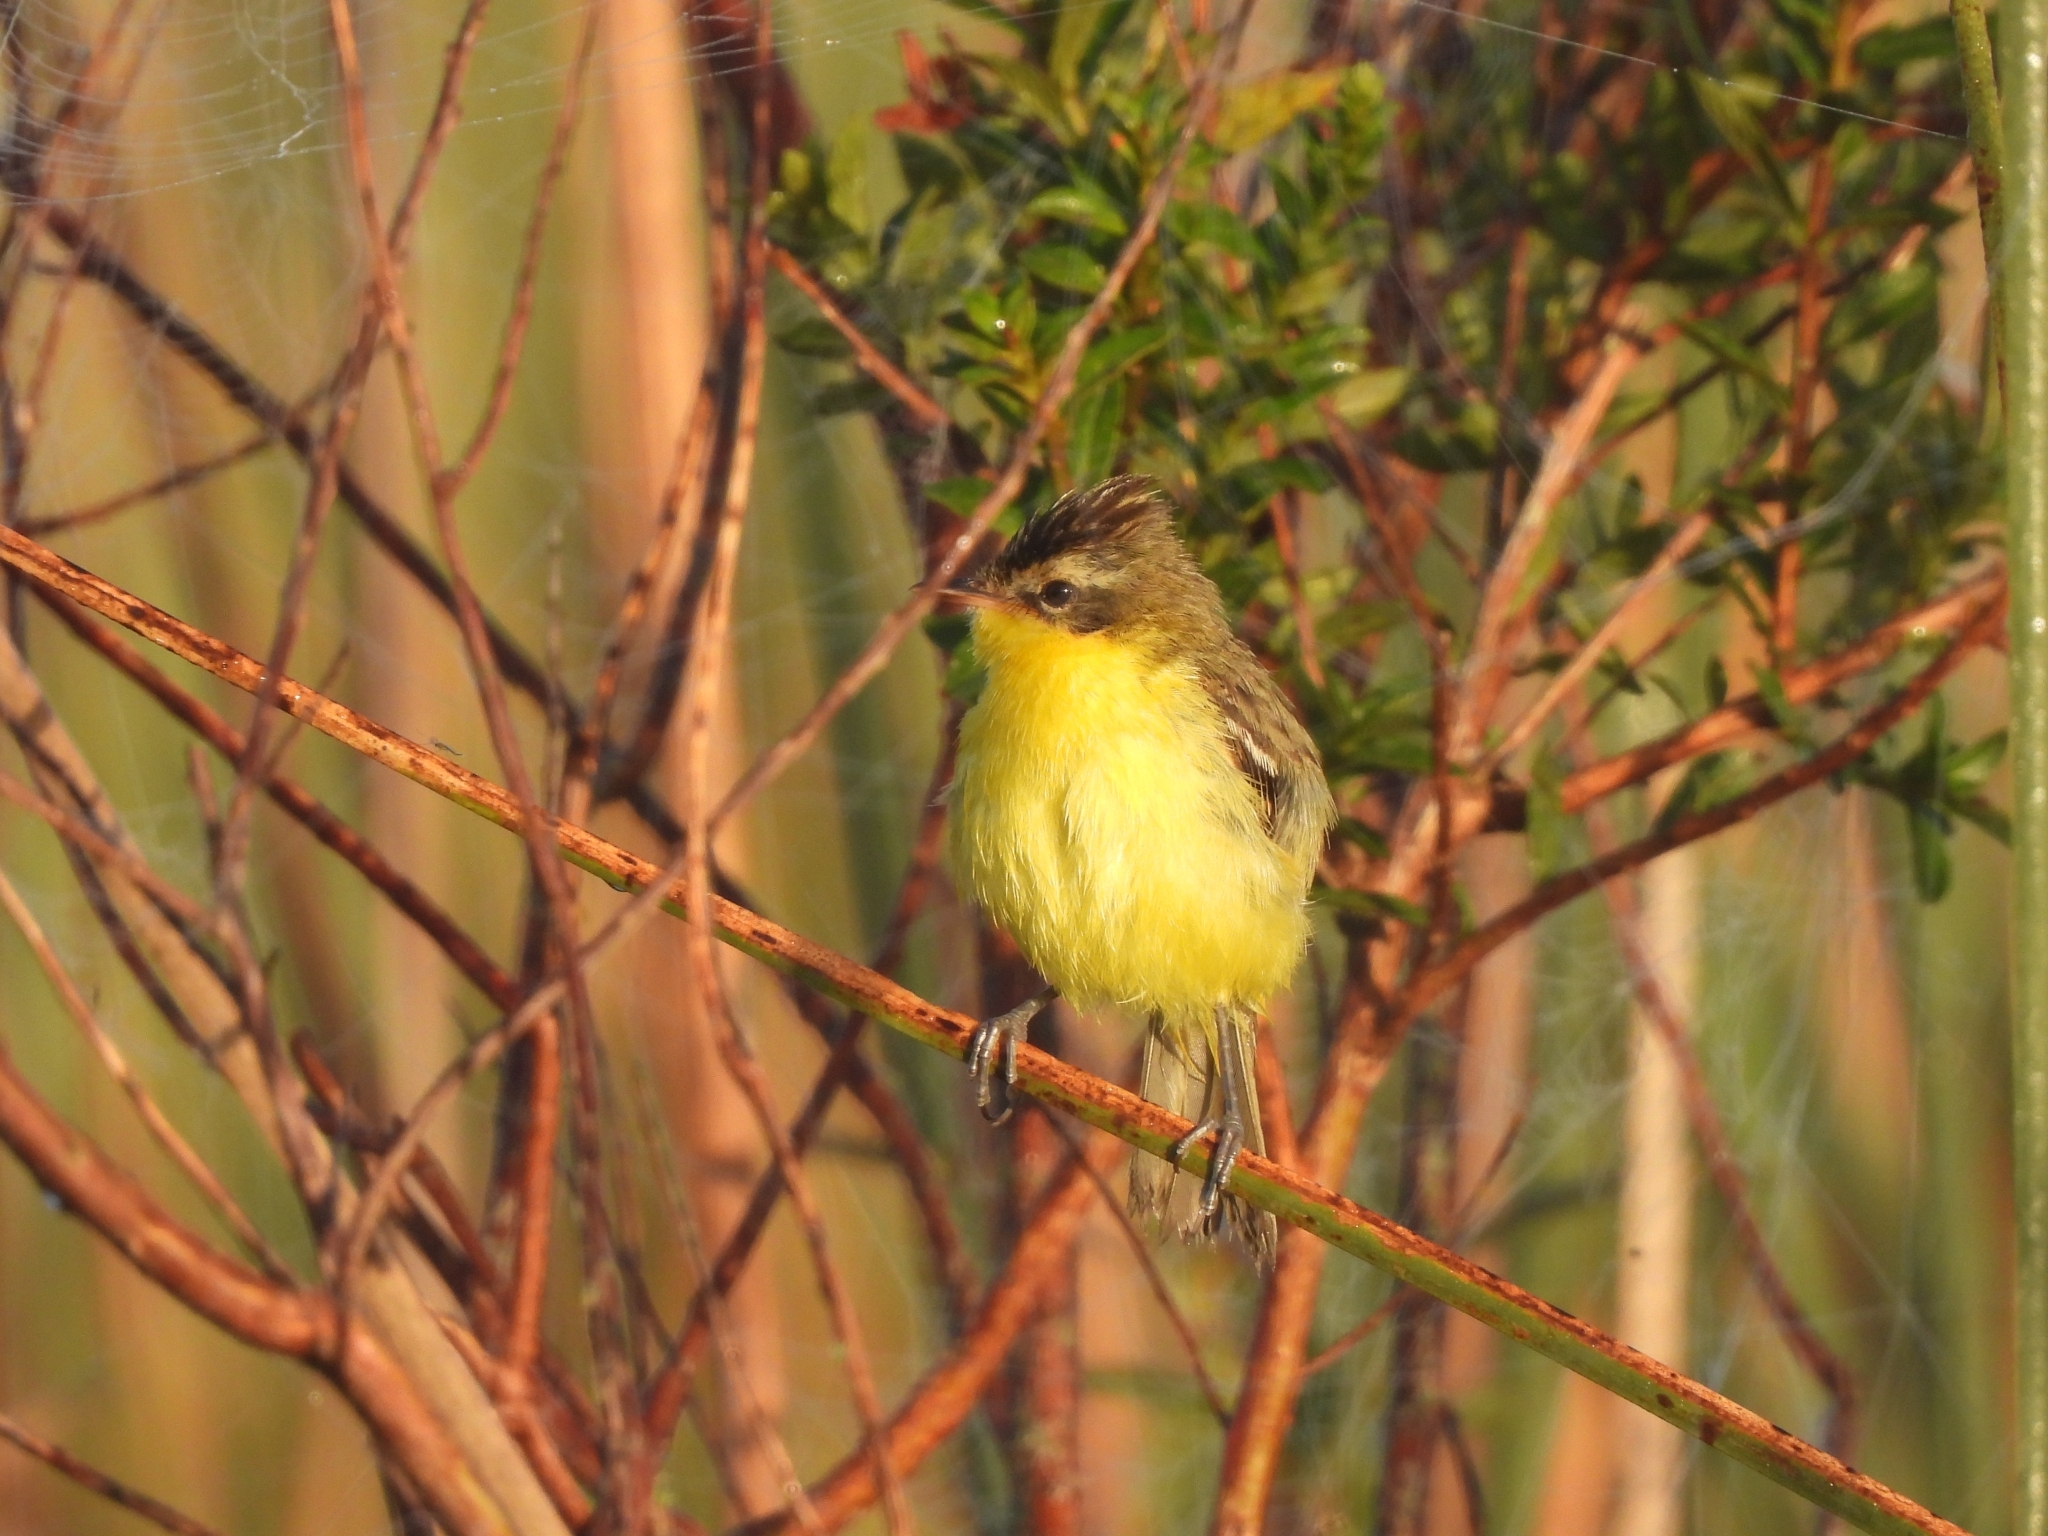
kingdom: Animalia
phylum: Chordata
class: Aves
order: Passeriformes
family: Tyrannidae
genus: Pseudocolopteryx
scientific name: Pseudocolopteryx sclateri
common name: Crested doradito
